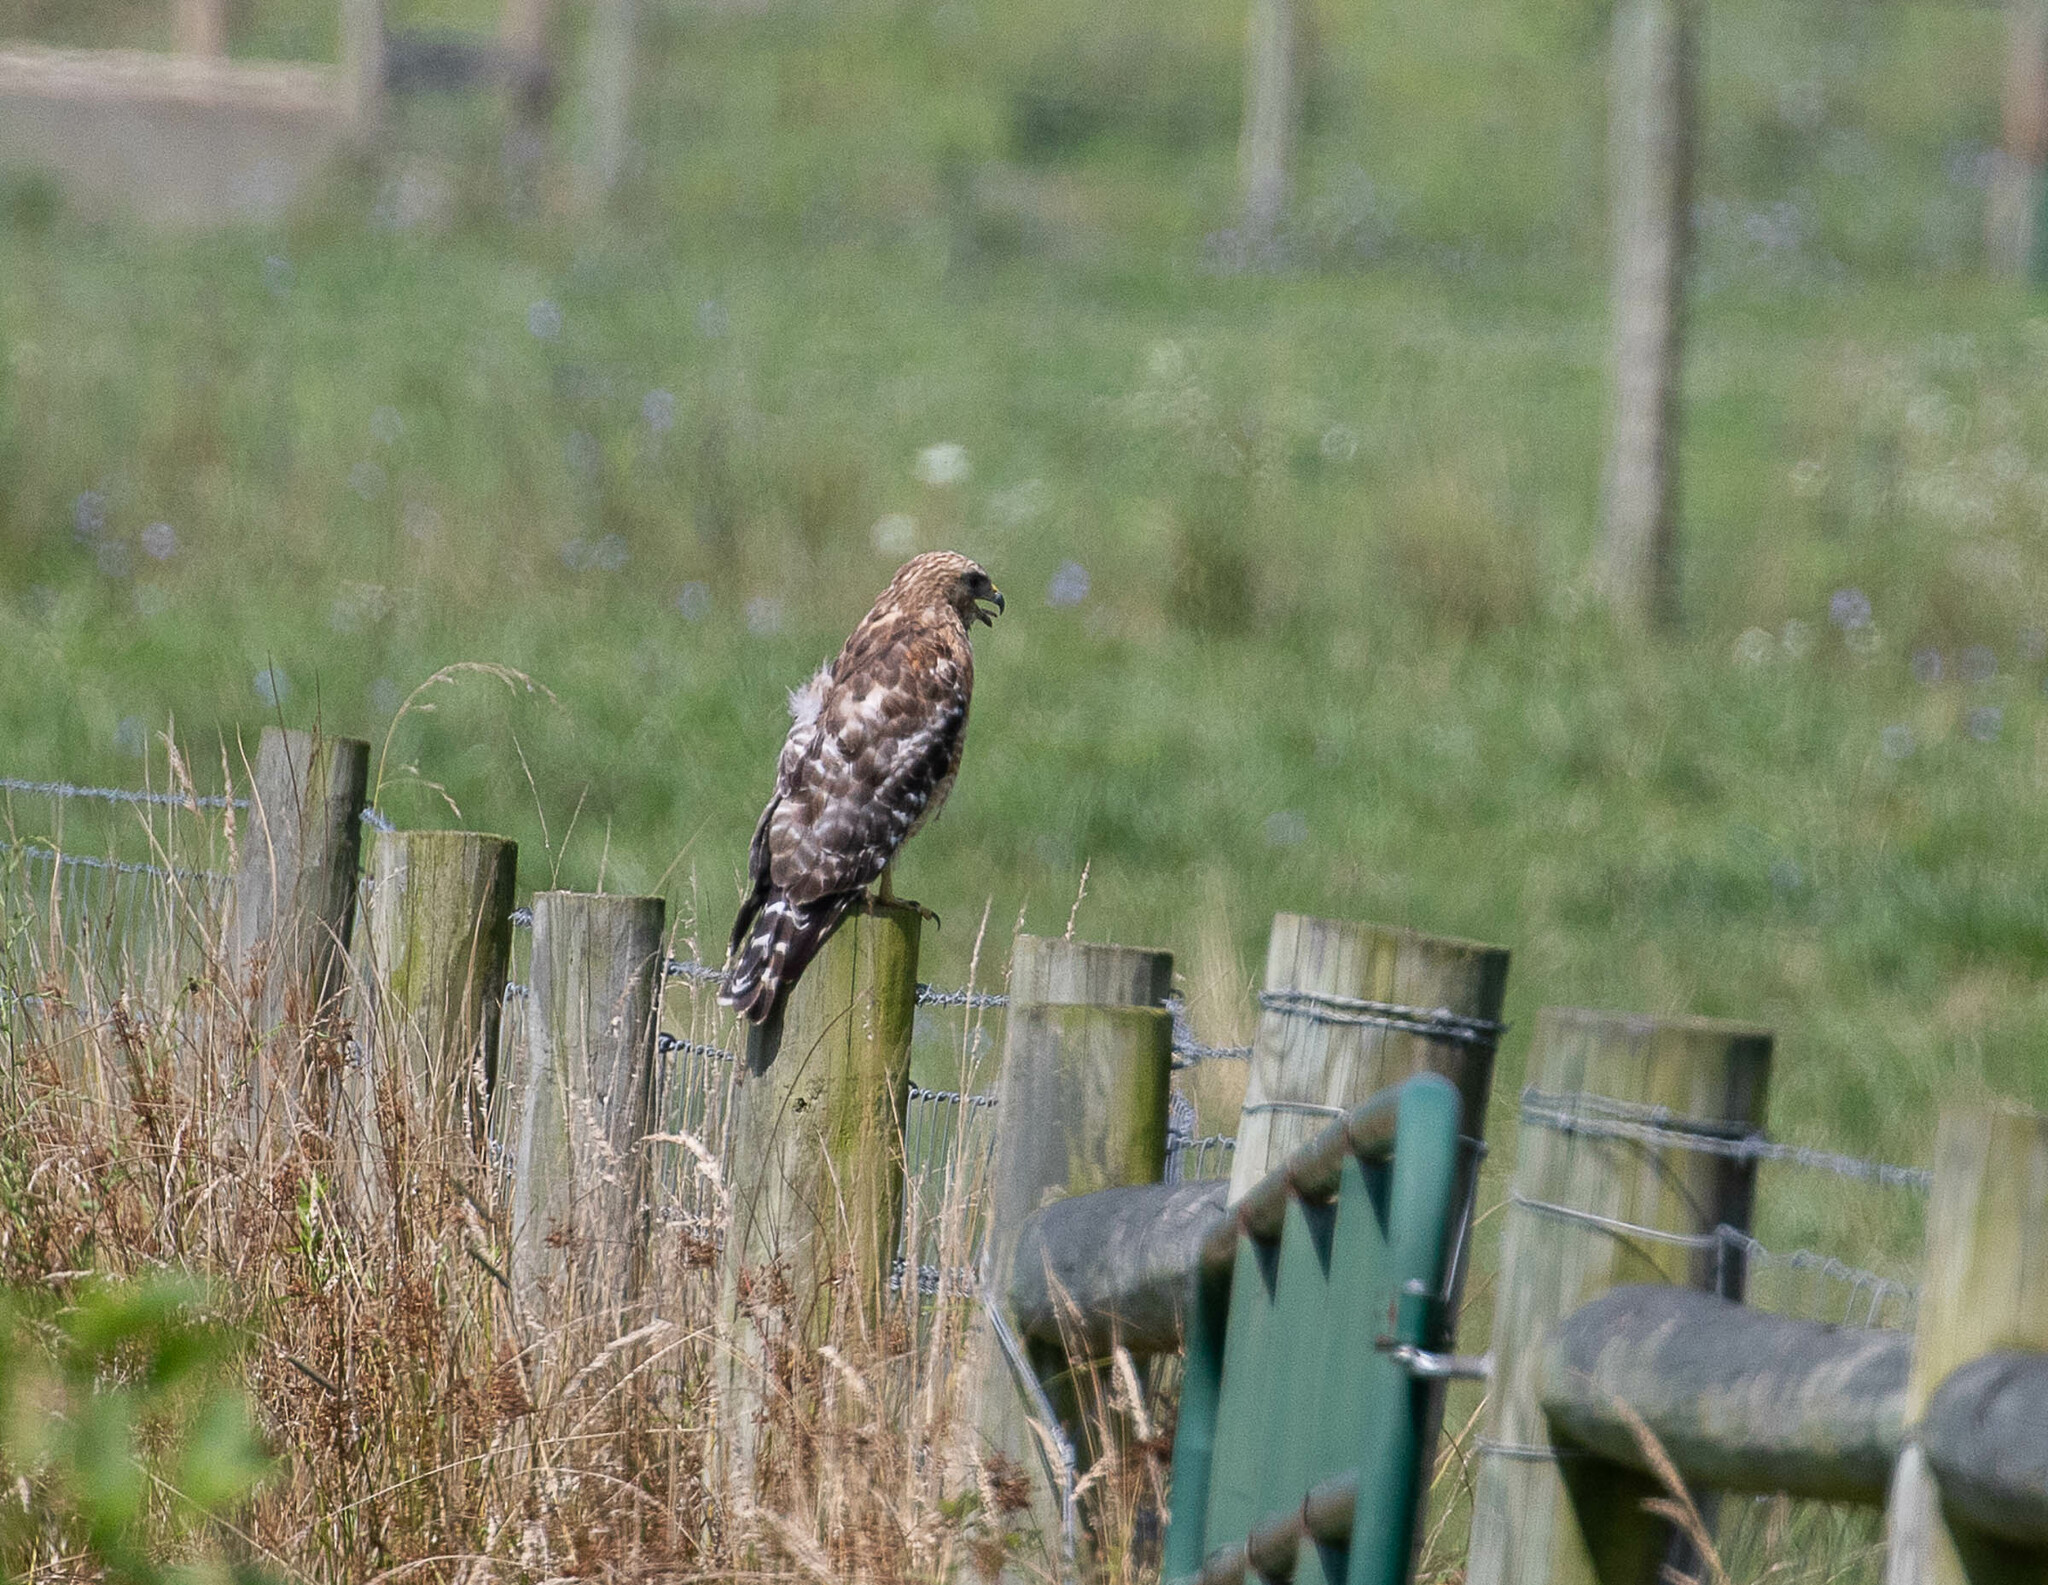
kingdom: Animalia
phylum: Chordata
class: Aves
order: Accipitriformes
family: Accipitridae
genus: Buteo
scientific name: Buteo lineatus
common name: Red-shouldered hawk
